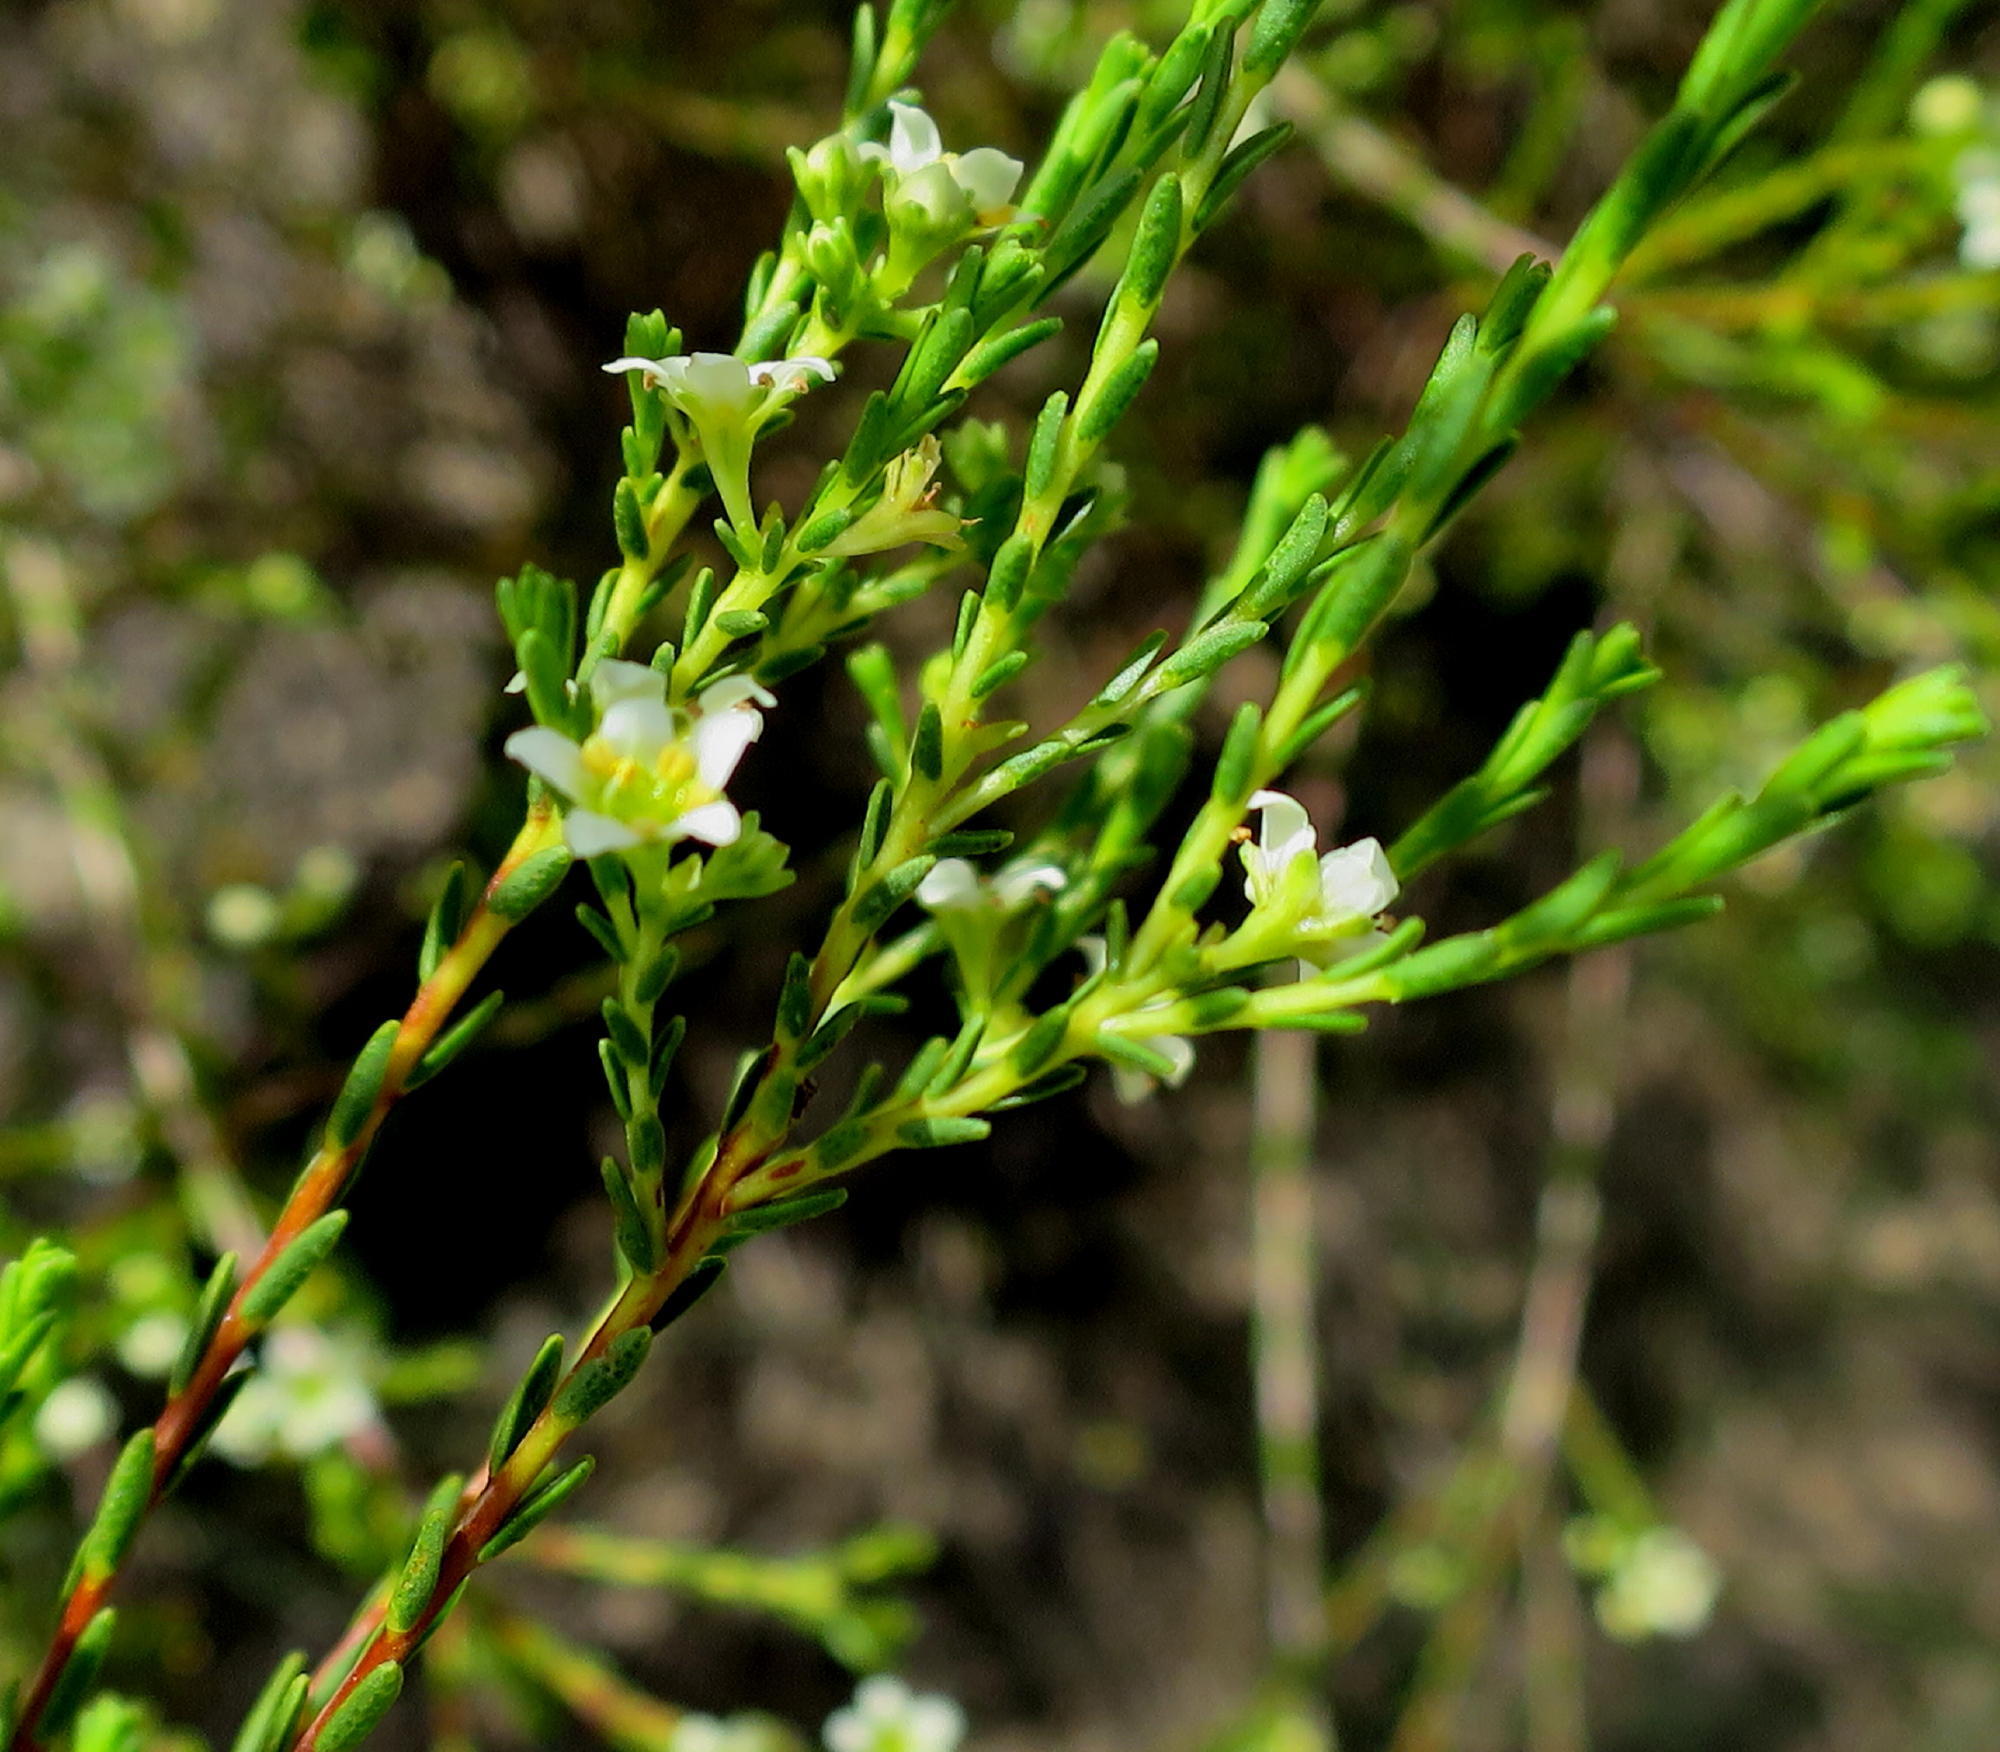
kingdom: Plantae
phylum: Tracheophyta
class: Magnoliopsida
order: Sapindales
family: Rutaceae
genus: Diosma
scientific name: Diosma prama
